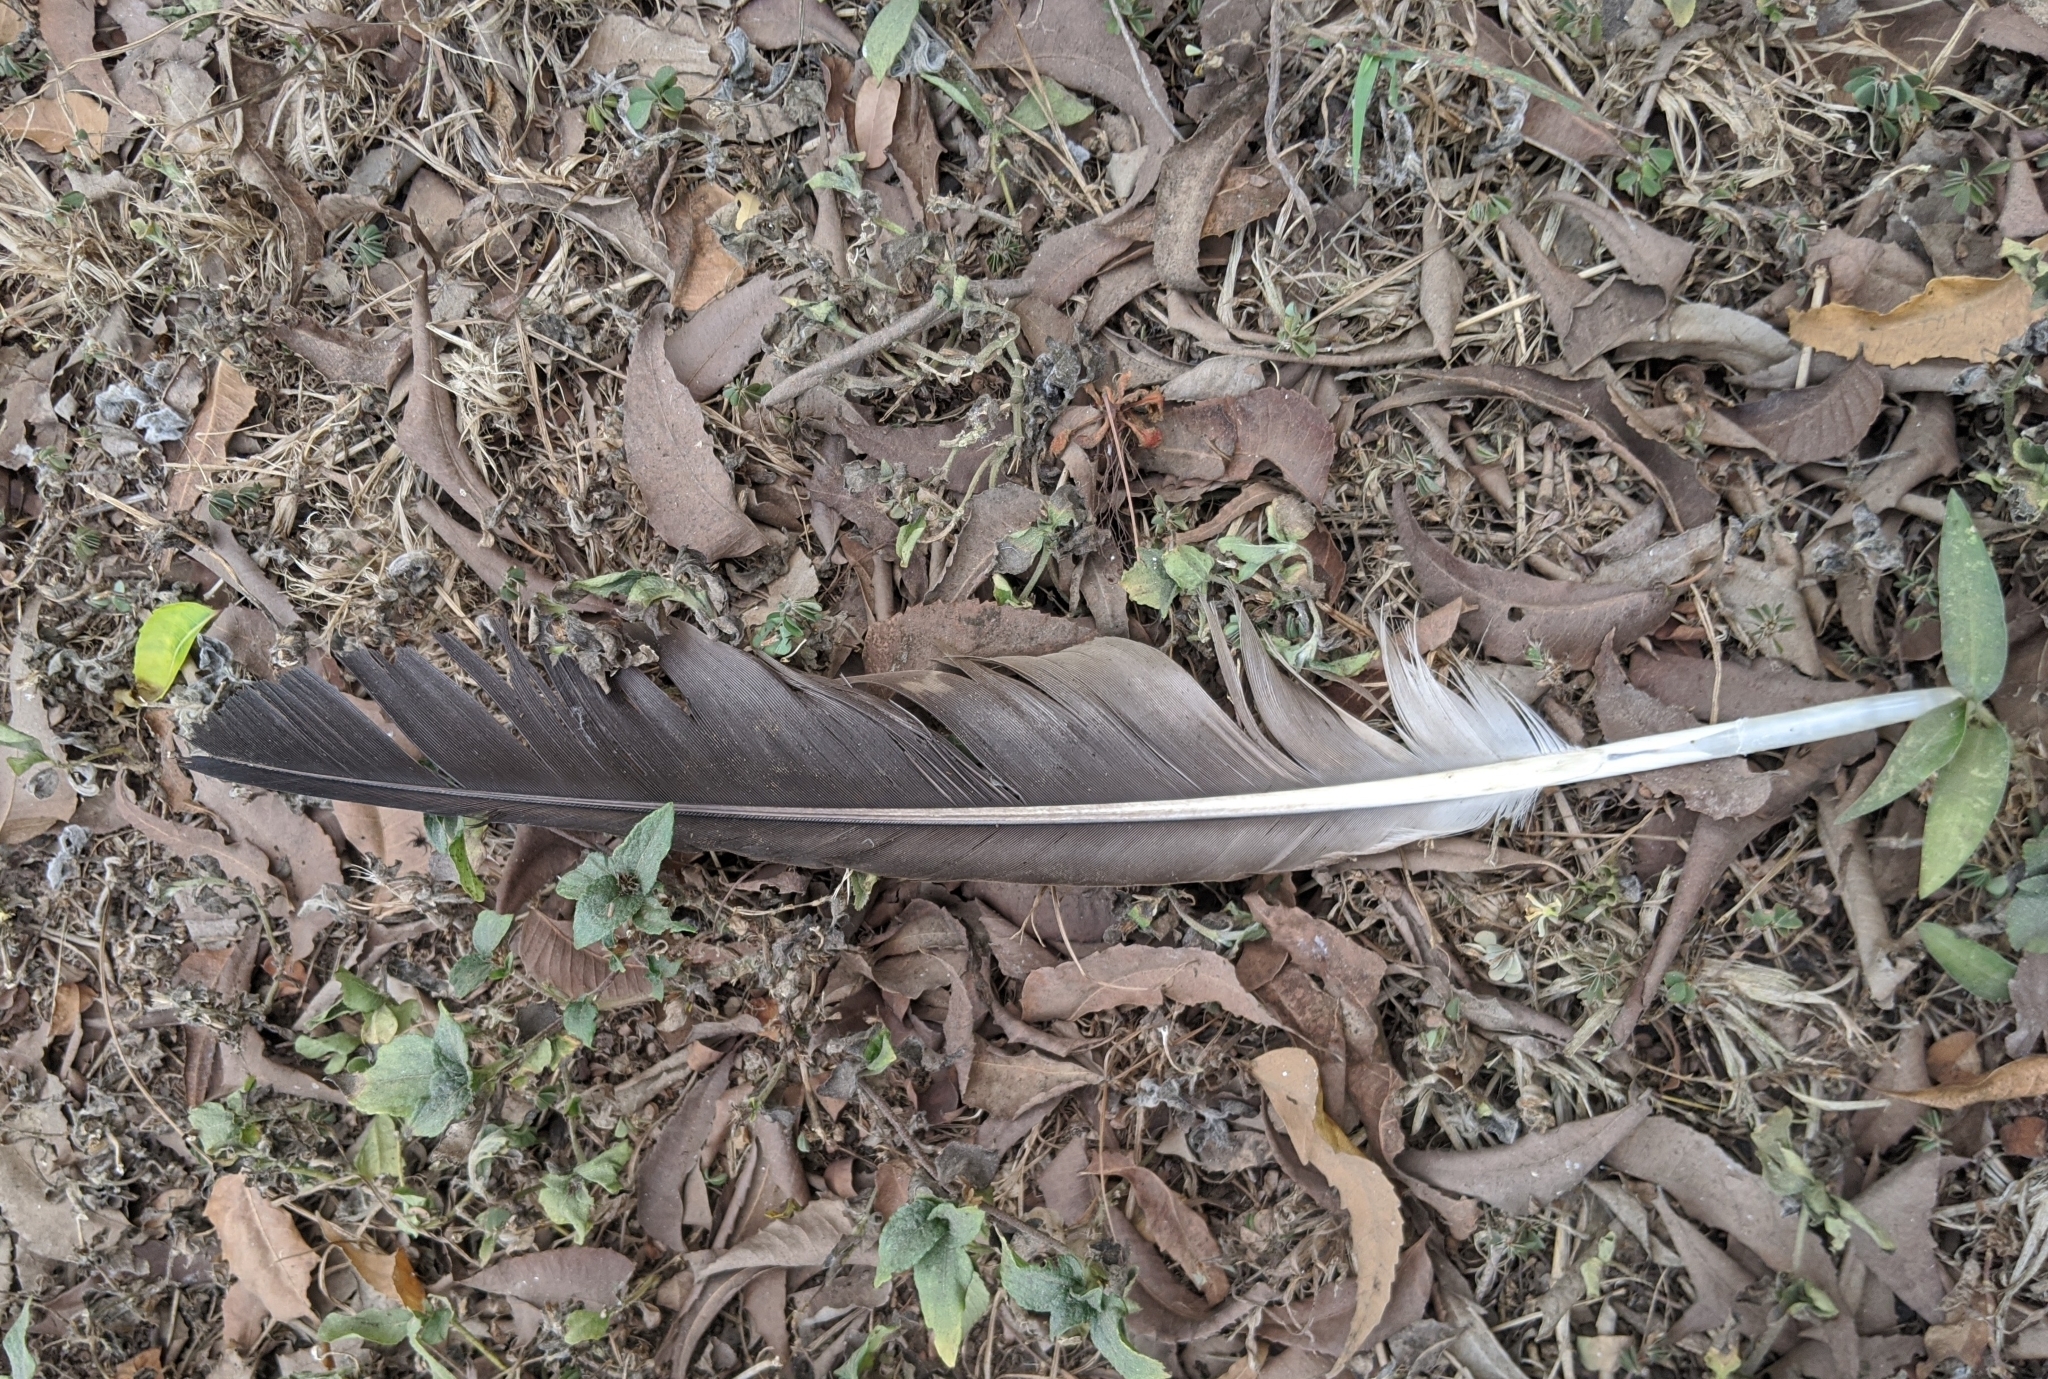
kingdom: Animalia
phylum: Chordata
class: Aves
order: Accipitriformes
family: Accipitridae
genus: Necrosyrtes
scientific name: Necrosyrtes monachus
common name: Hooded vulture
